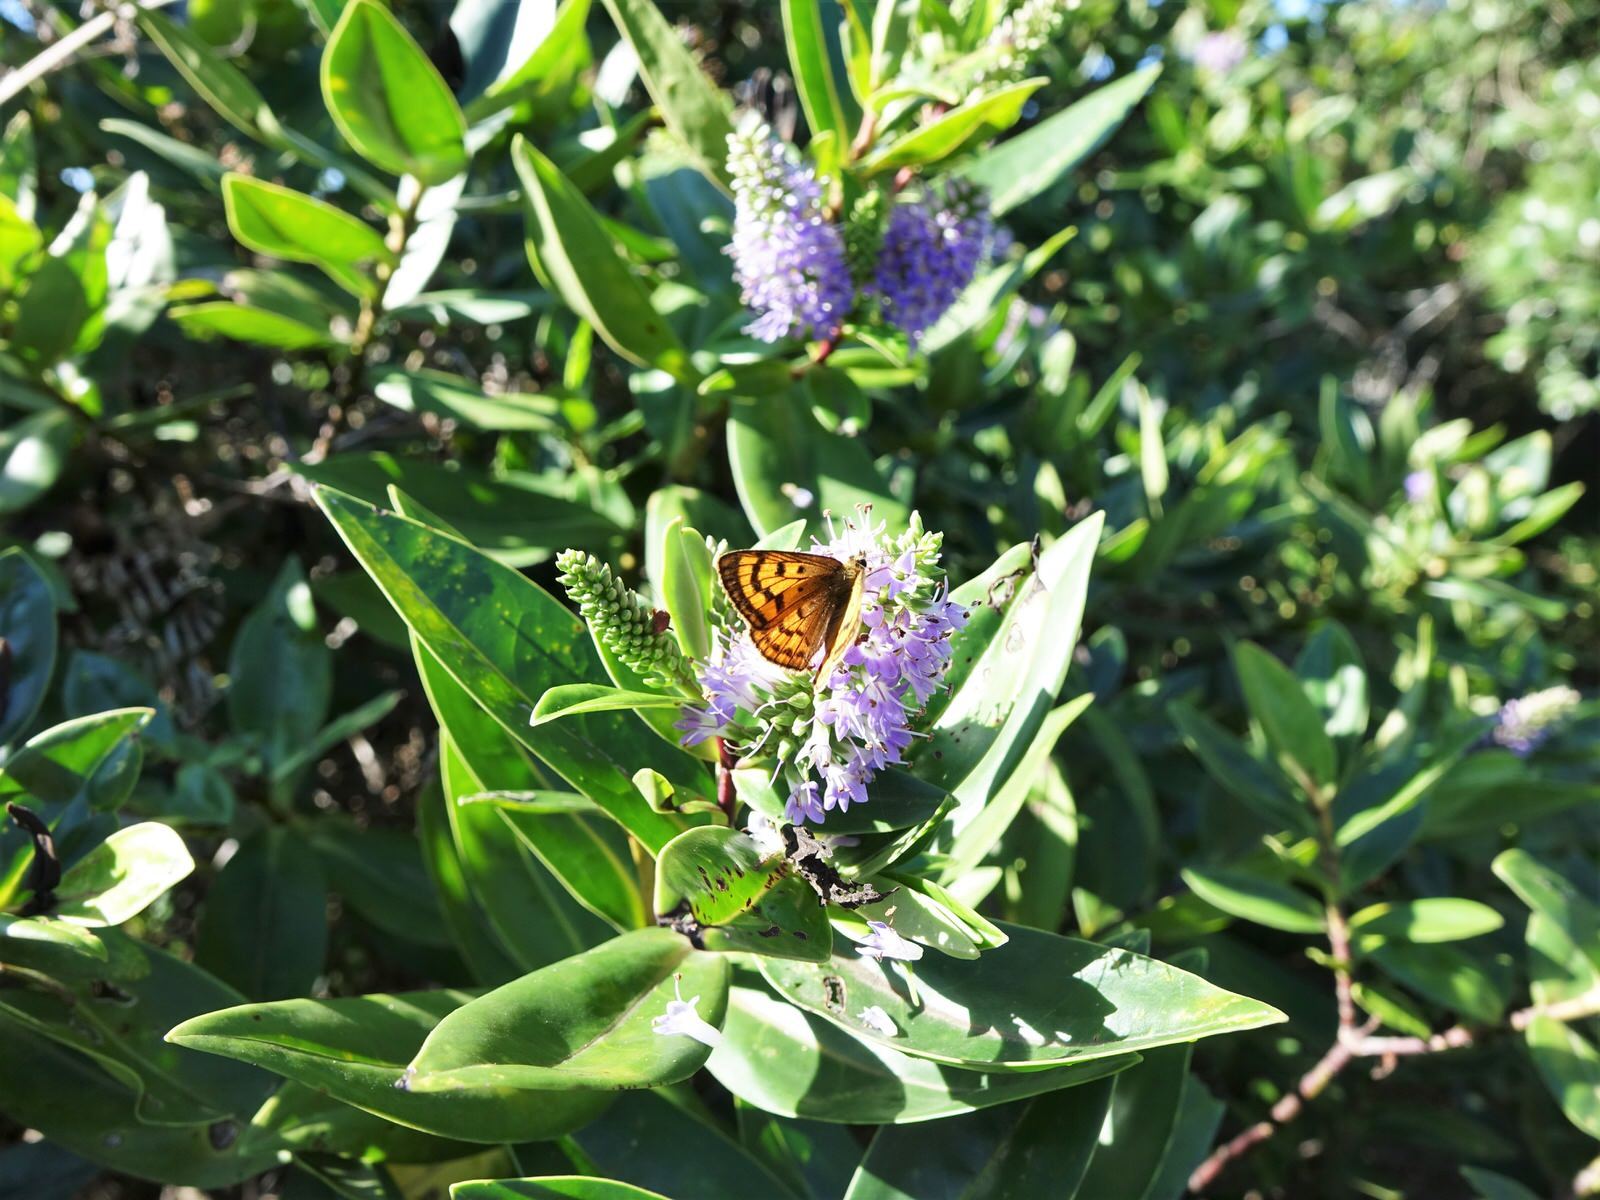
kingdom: Animalia
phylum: Arthropoda
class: Insecta
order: Lepidoptera
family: Lycaenidae
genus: Lycaena
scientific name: Lycaena
